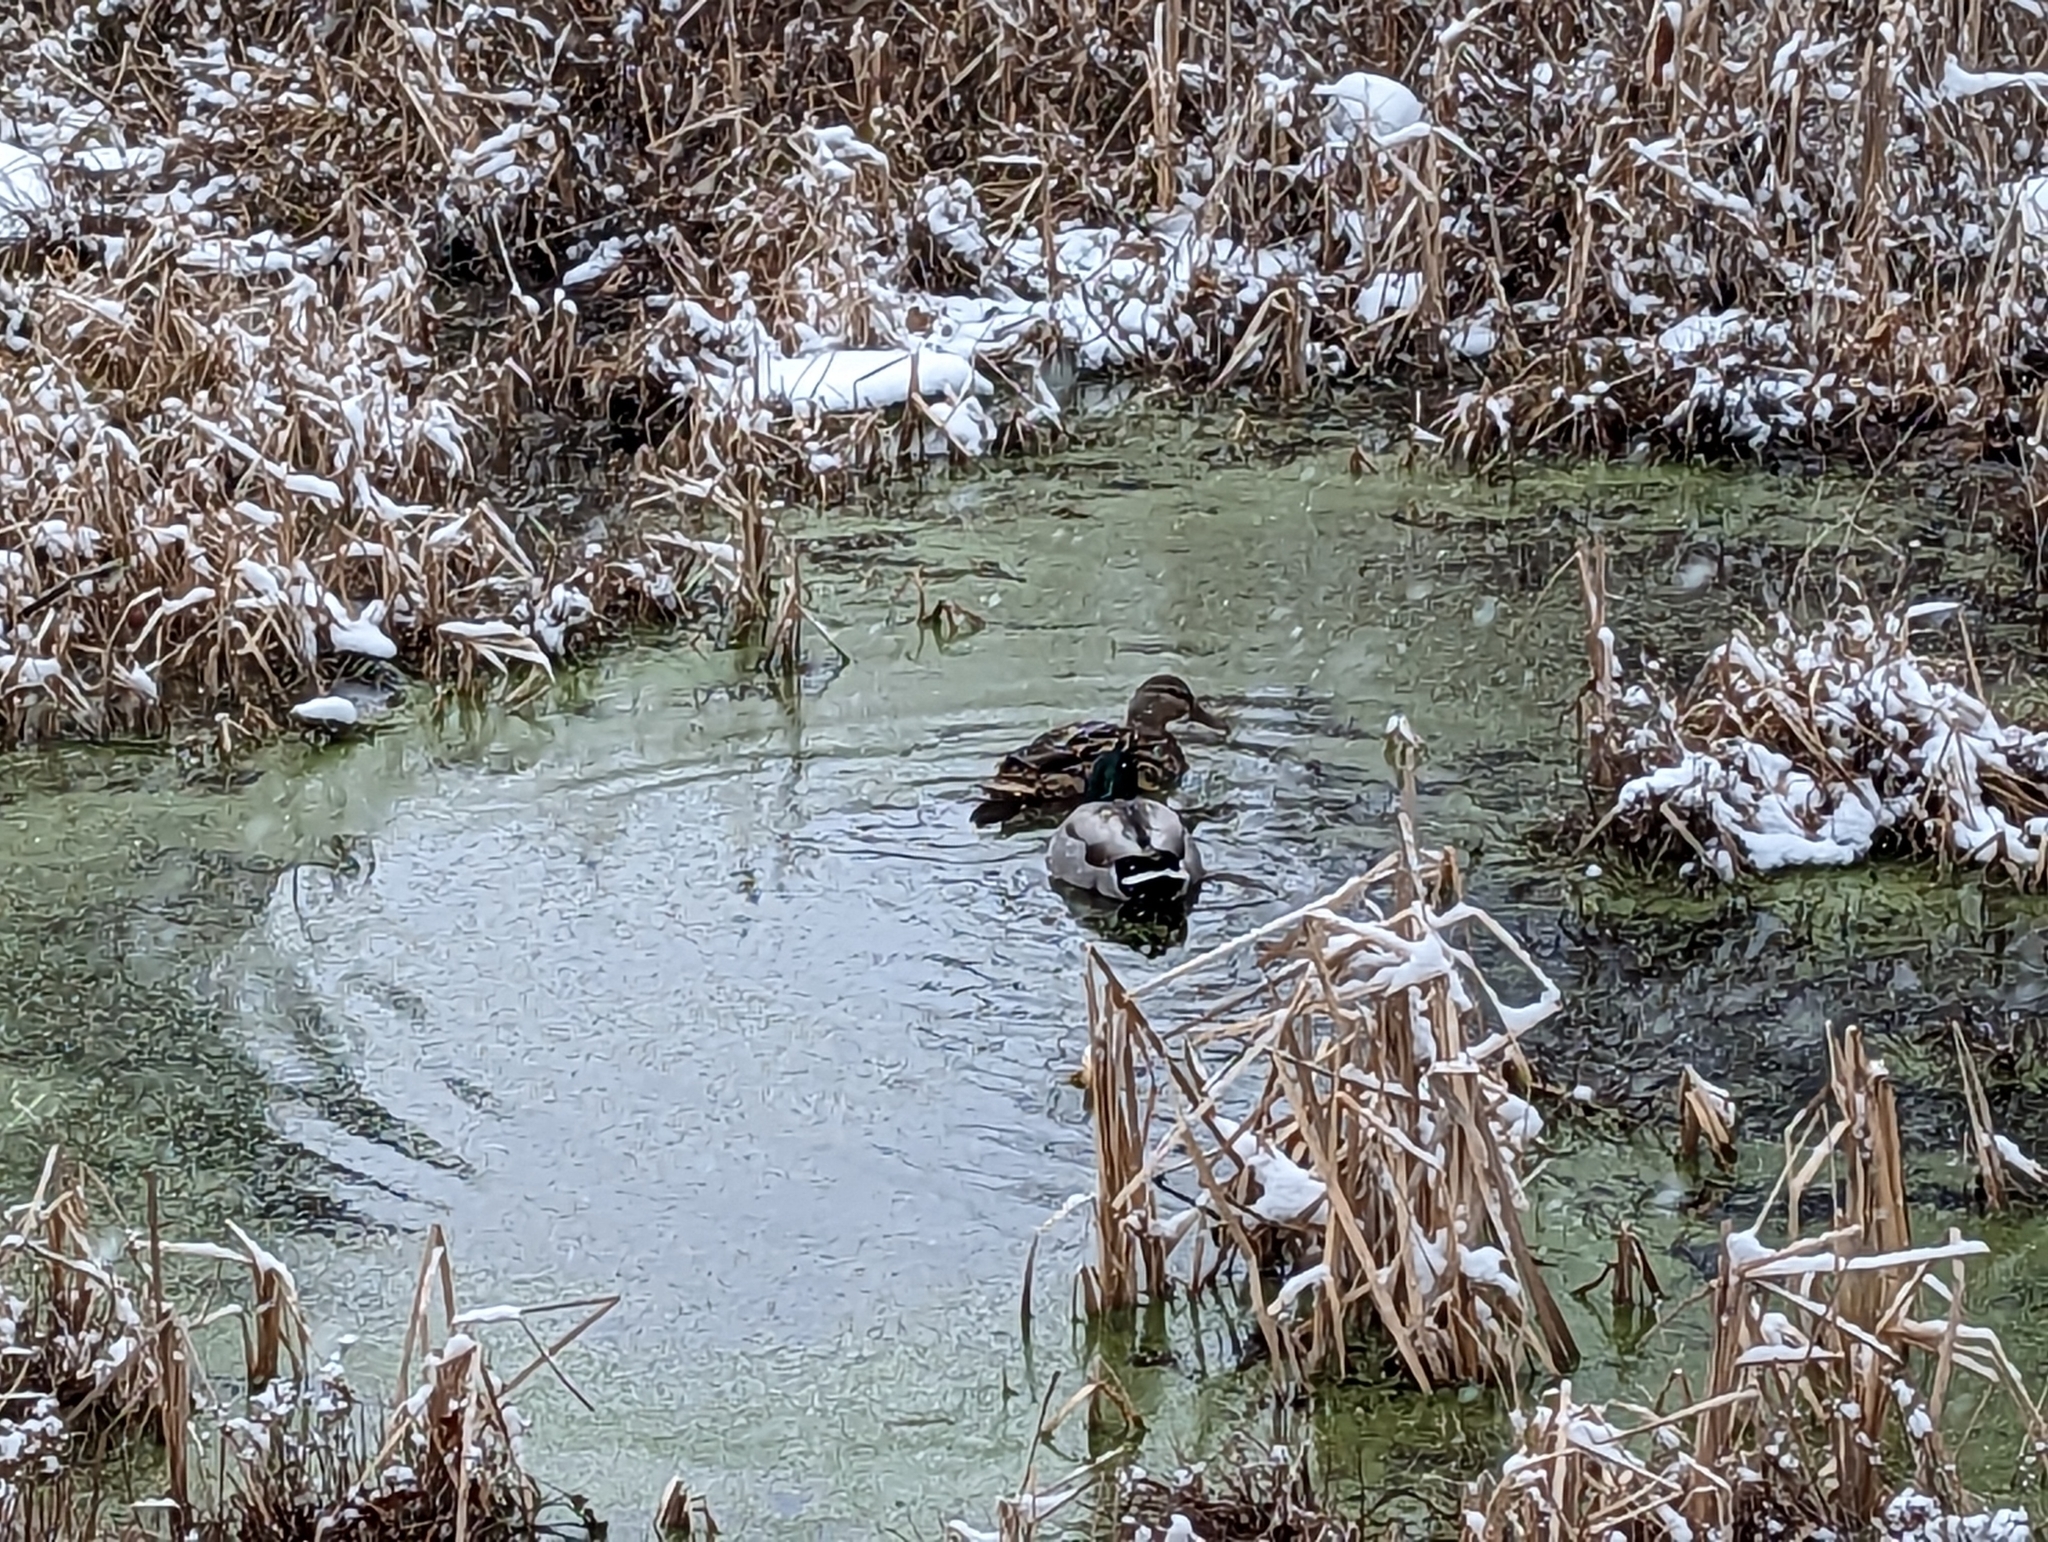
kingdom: Animalia
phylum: Chordata
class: Aves
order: Anseriformes
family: Anatidae
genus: Anas
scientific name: Anas platyrhynchos
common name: Mallard
